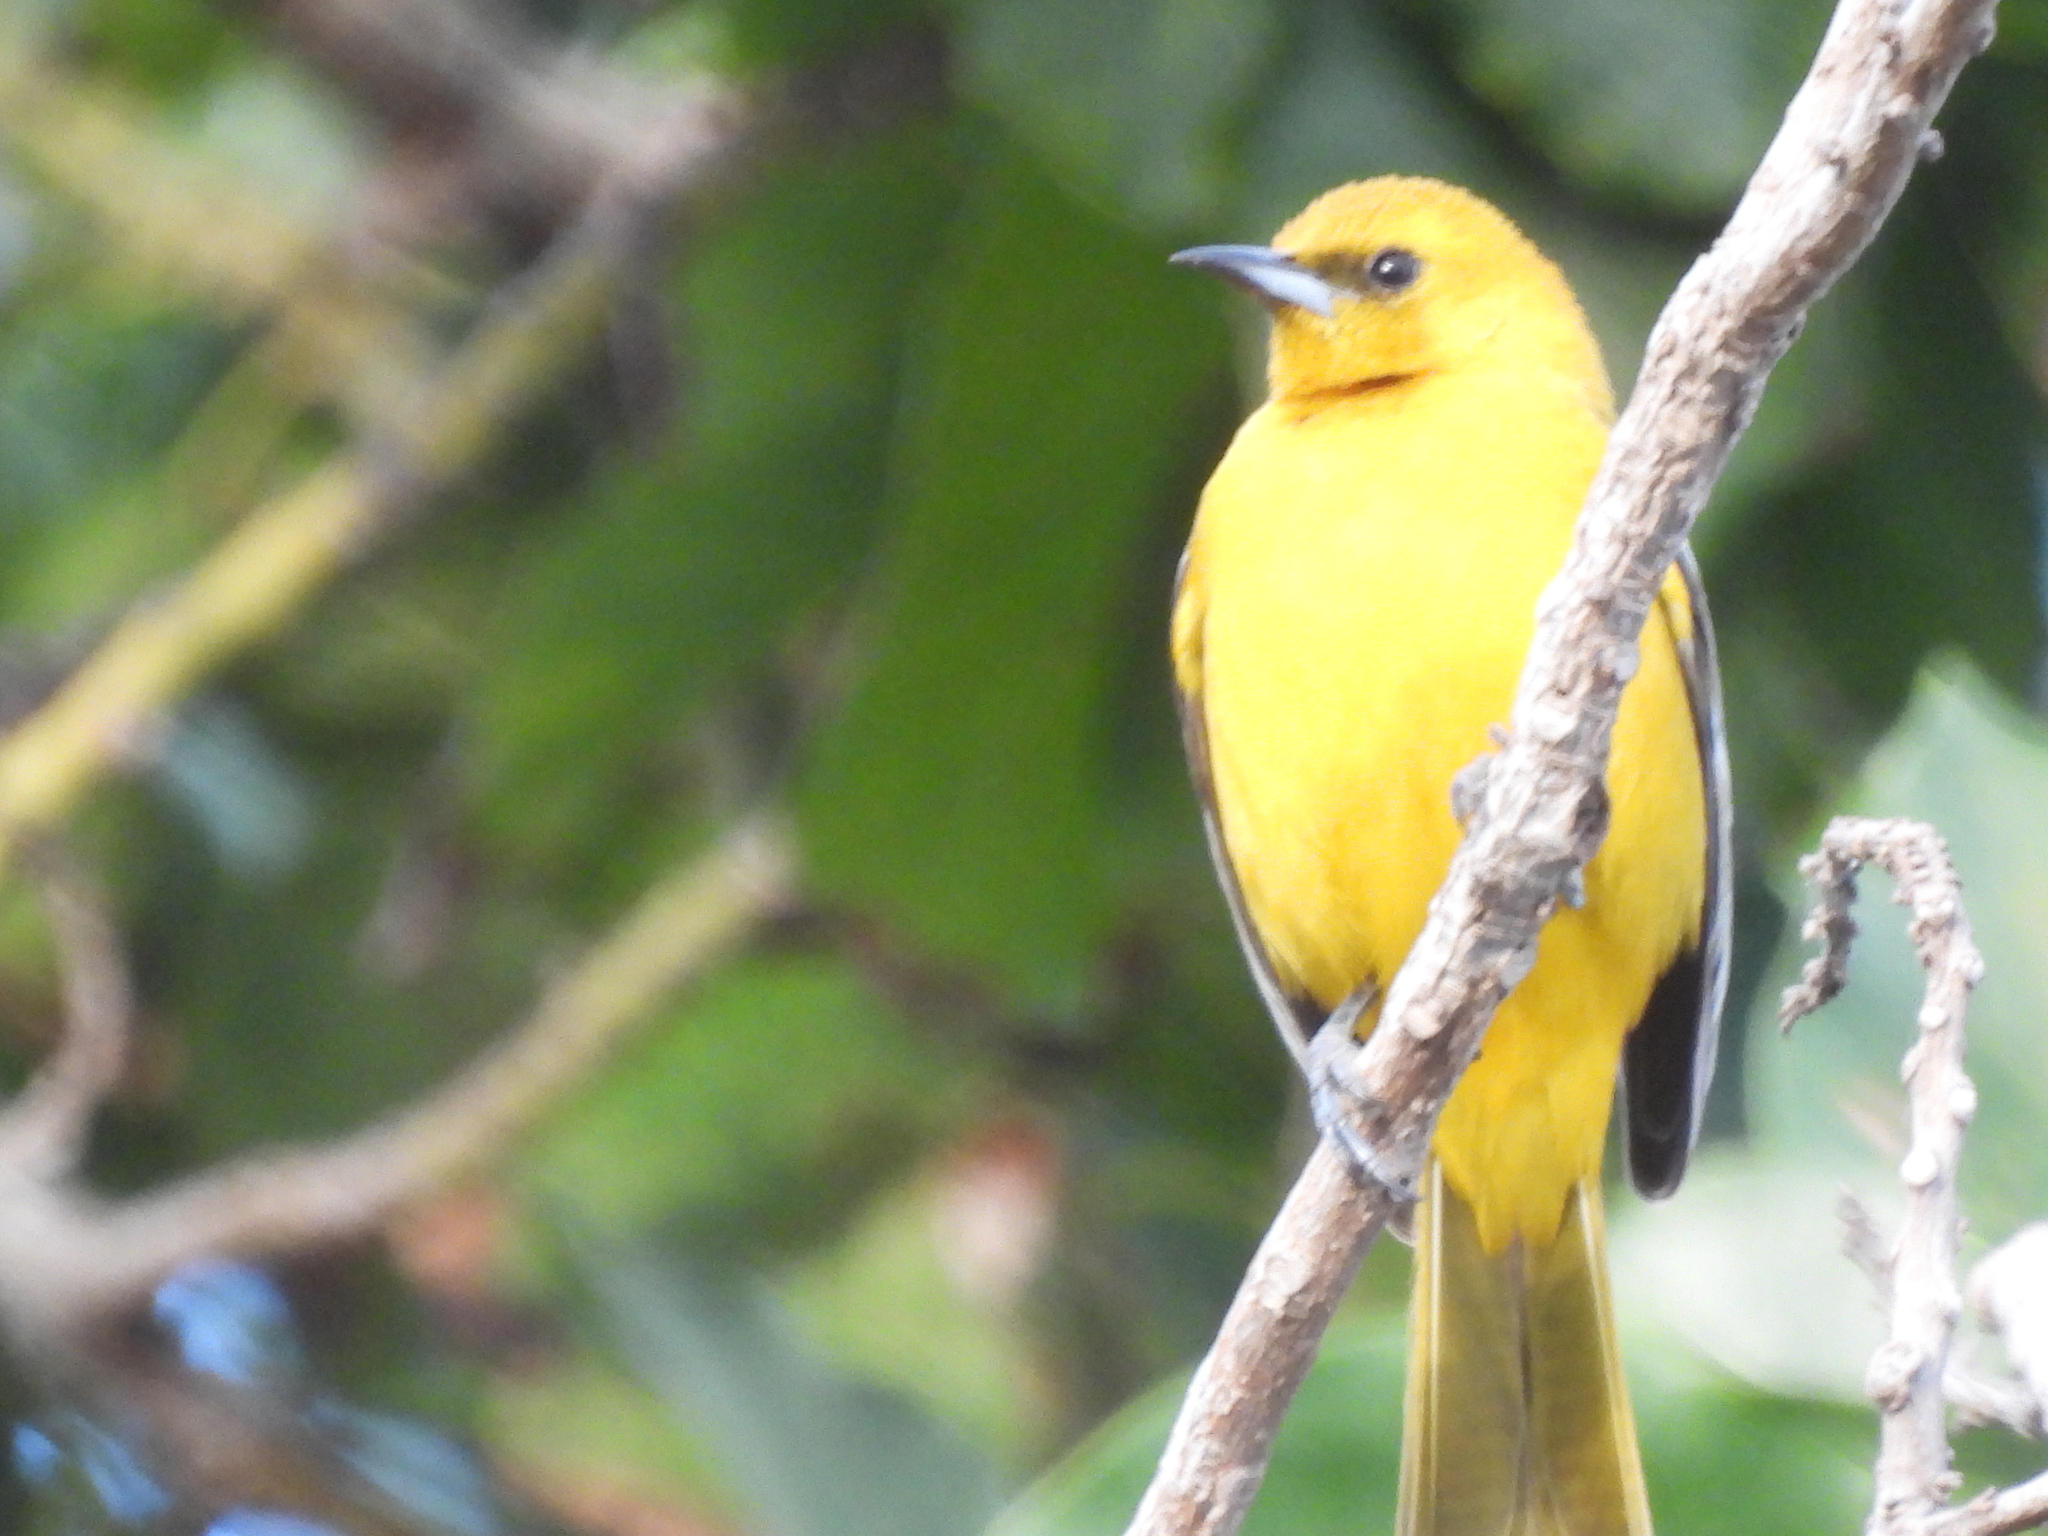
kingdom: Animalia
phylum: Chordata
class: Aves
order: Passeriformes
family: Icteridae
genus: Icterus
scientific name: Icterus cucullatus
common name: Hooded oriole
